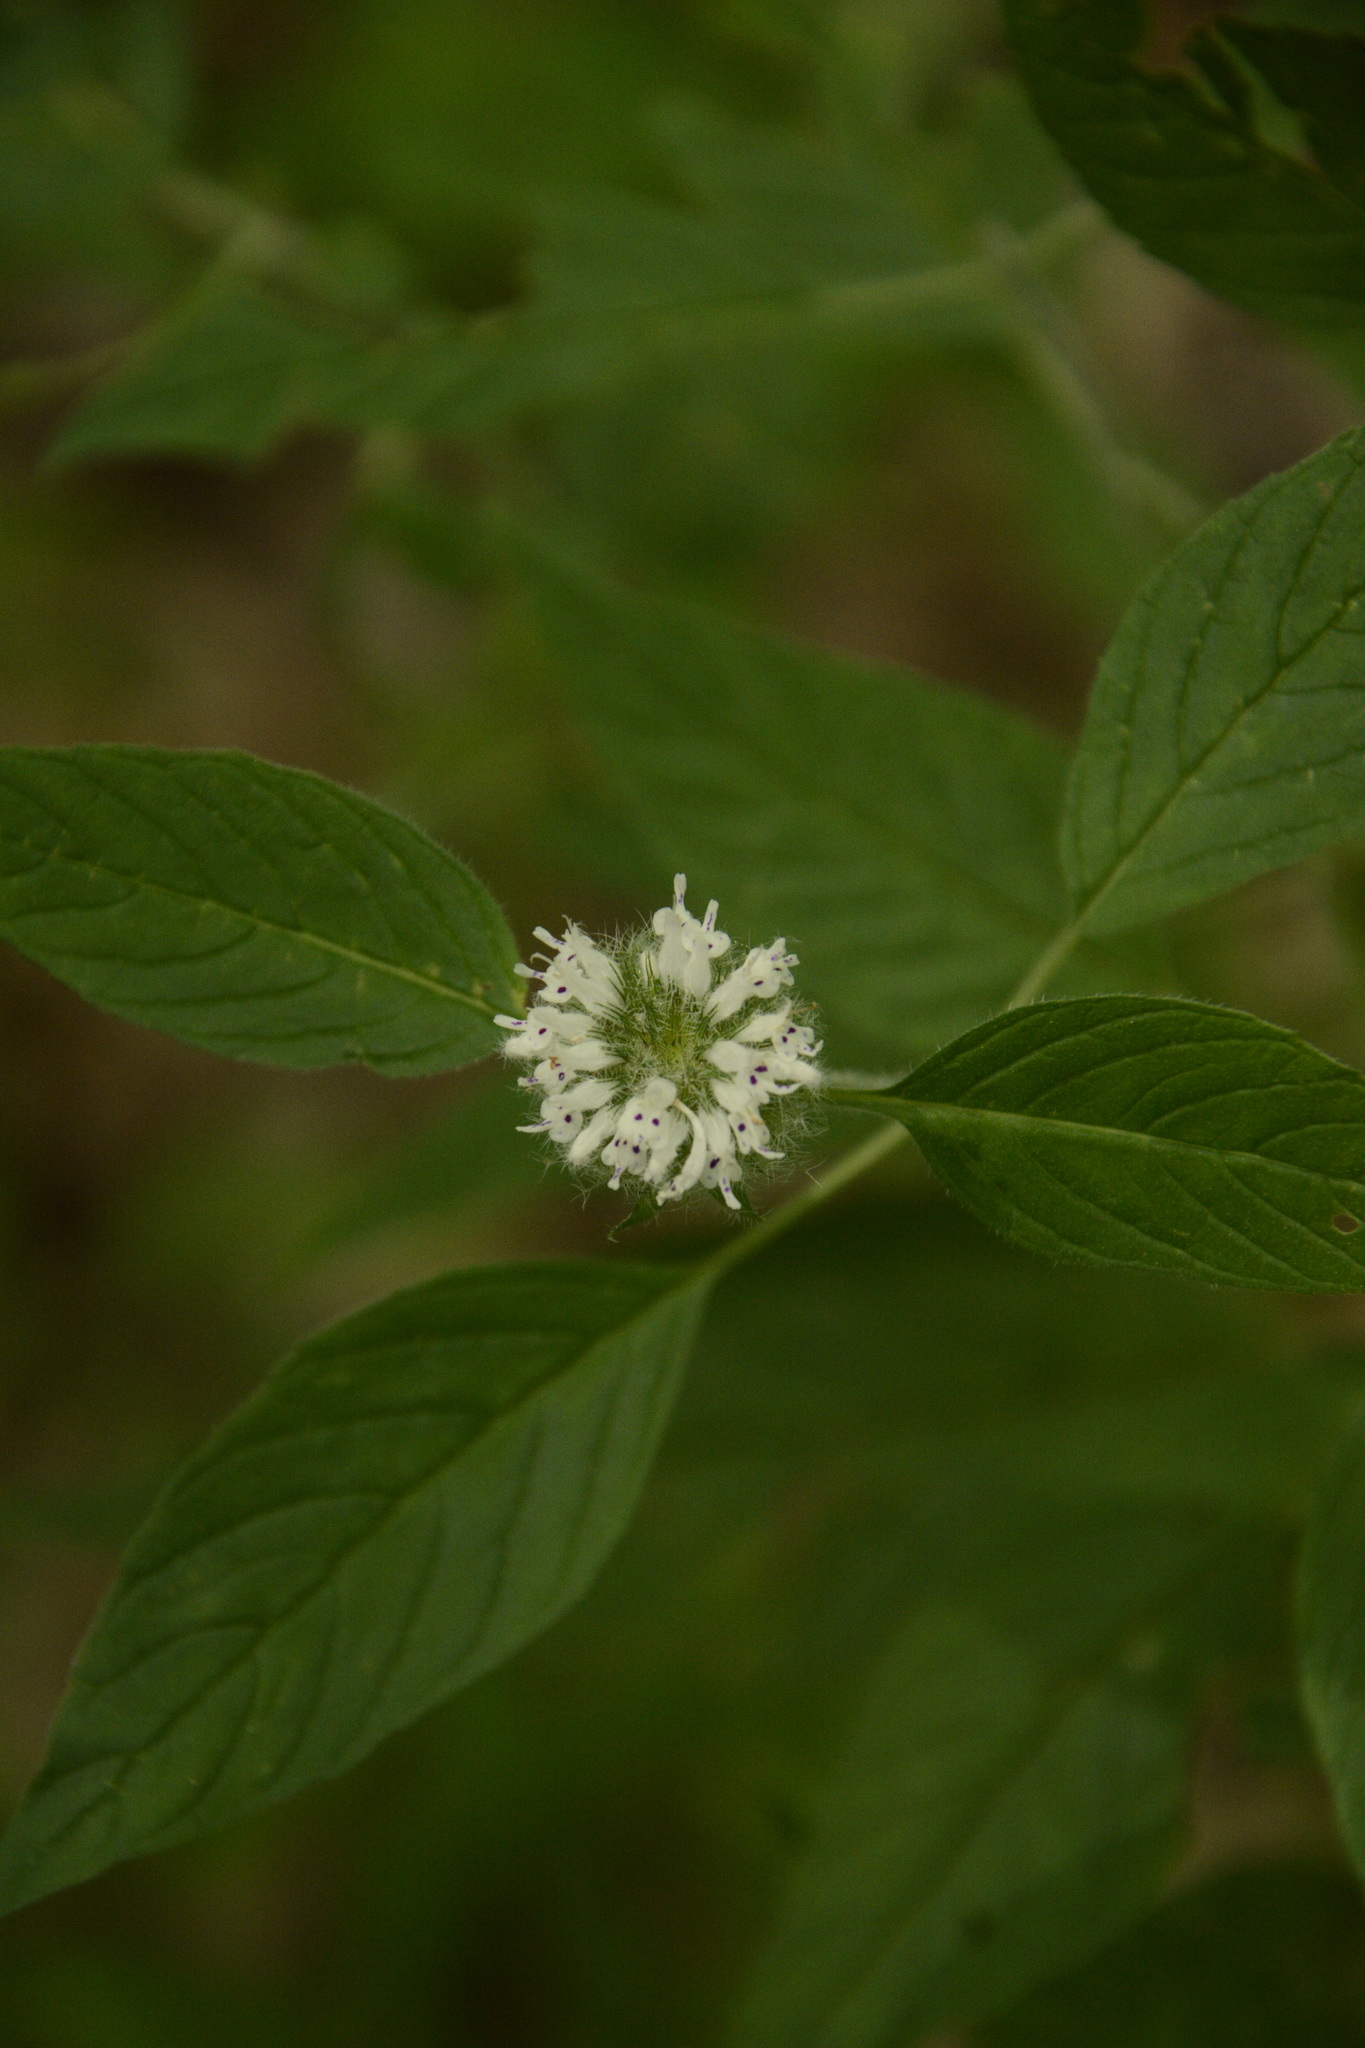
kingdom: Plantae
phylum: Tracheophyta
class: Magnoliopsida
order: Lamiales
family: Lamiaceae
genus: Blephilia
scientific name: Blephilia hirsuta
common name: Hairy blephilia
